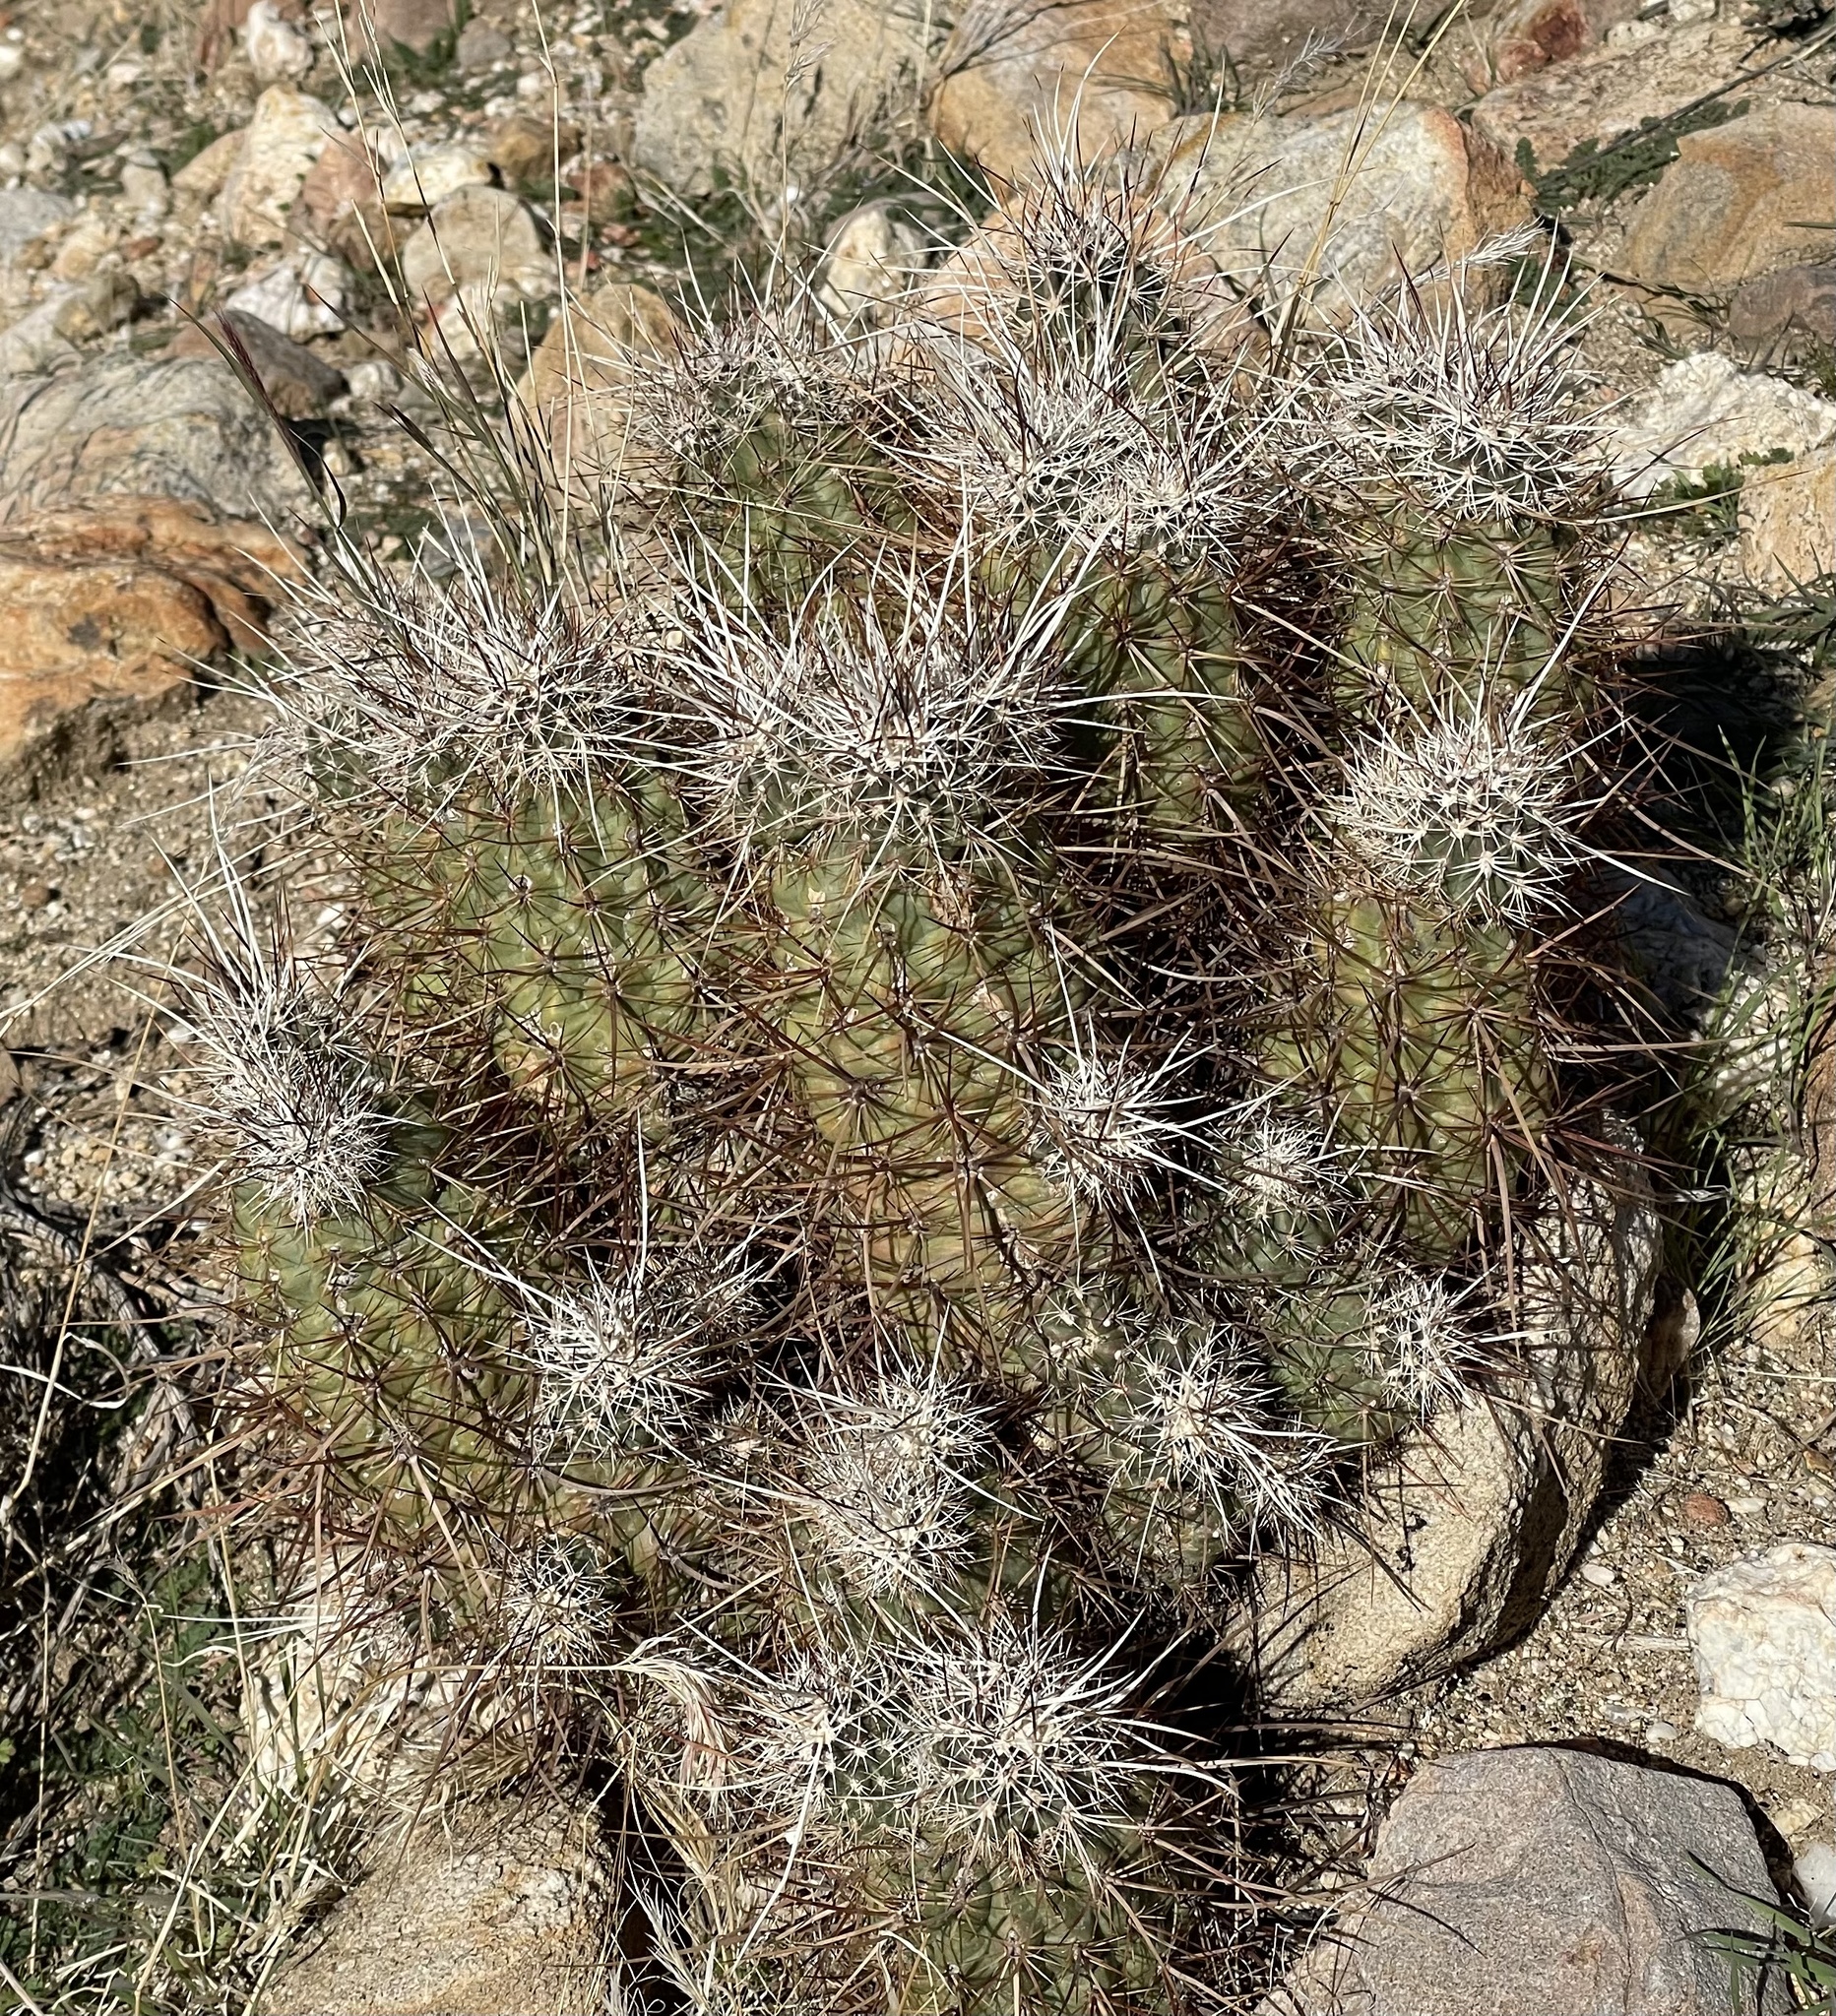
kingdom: Plantae
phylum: Tracheophyta
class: Magnoliopsida
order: Caryophyllales
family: Cactaceae
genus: Echinocereus
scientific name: Echinocereus engelmannii
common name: Engelmann's hedgehog cactus
